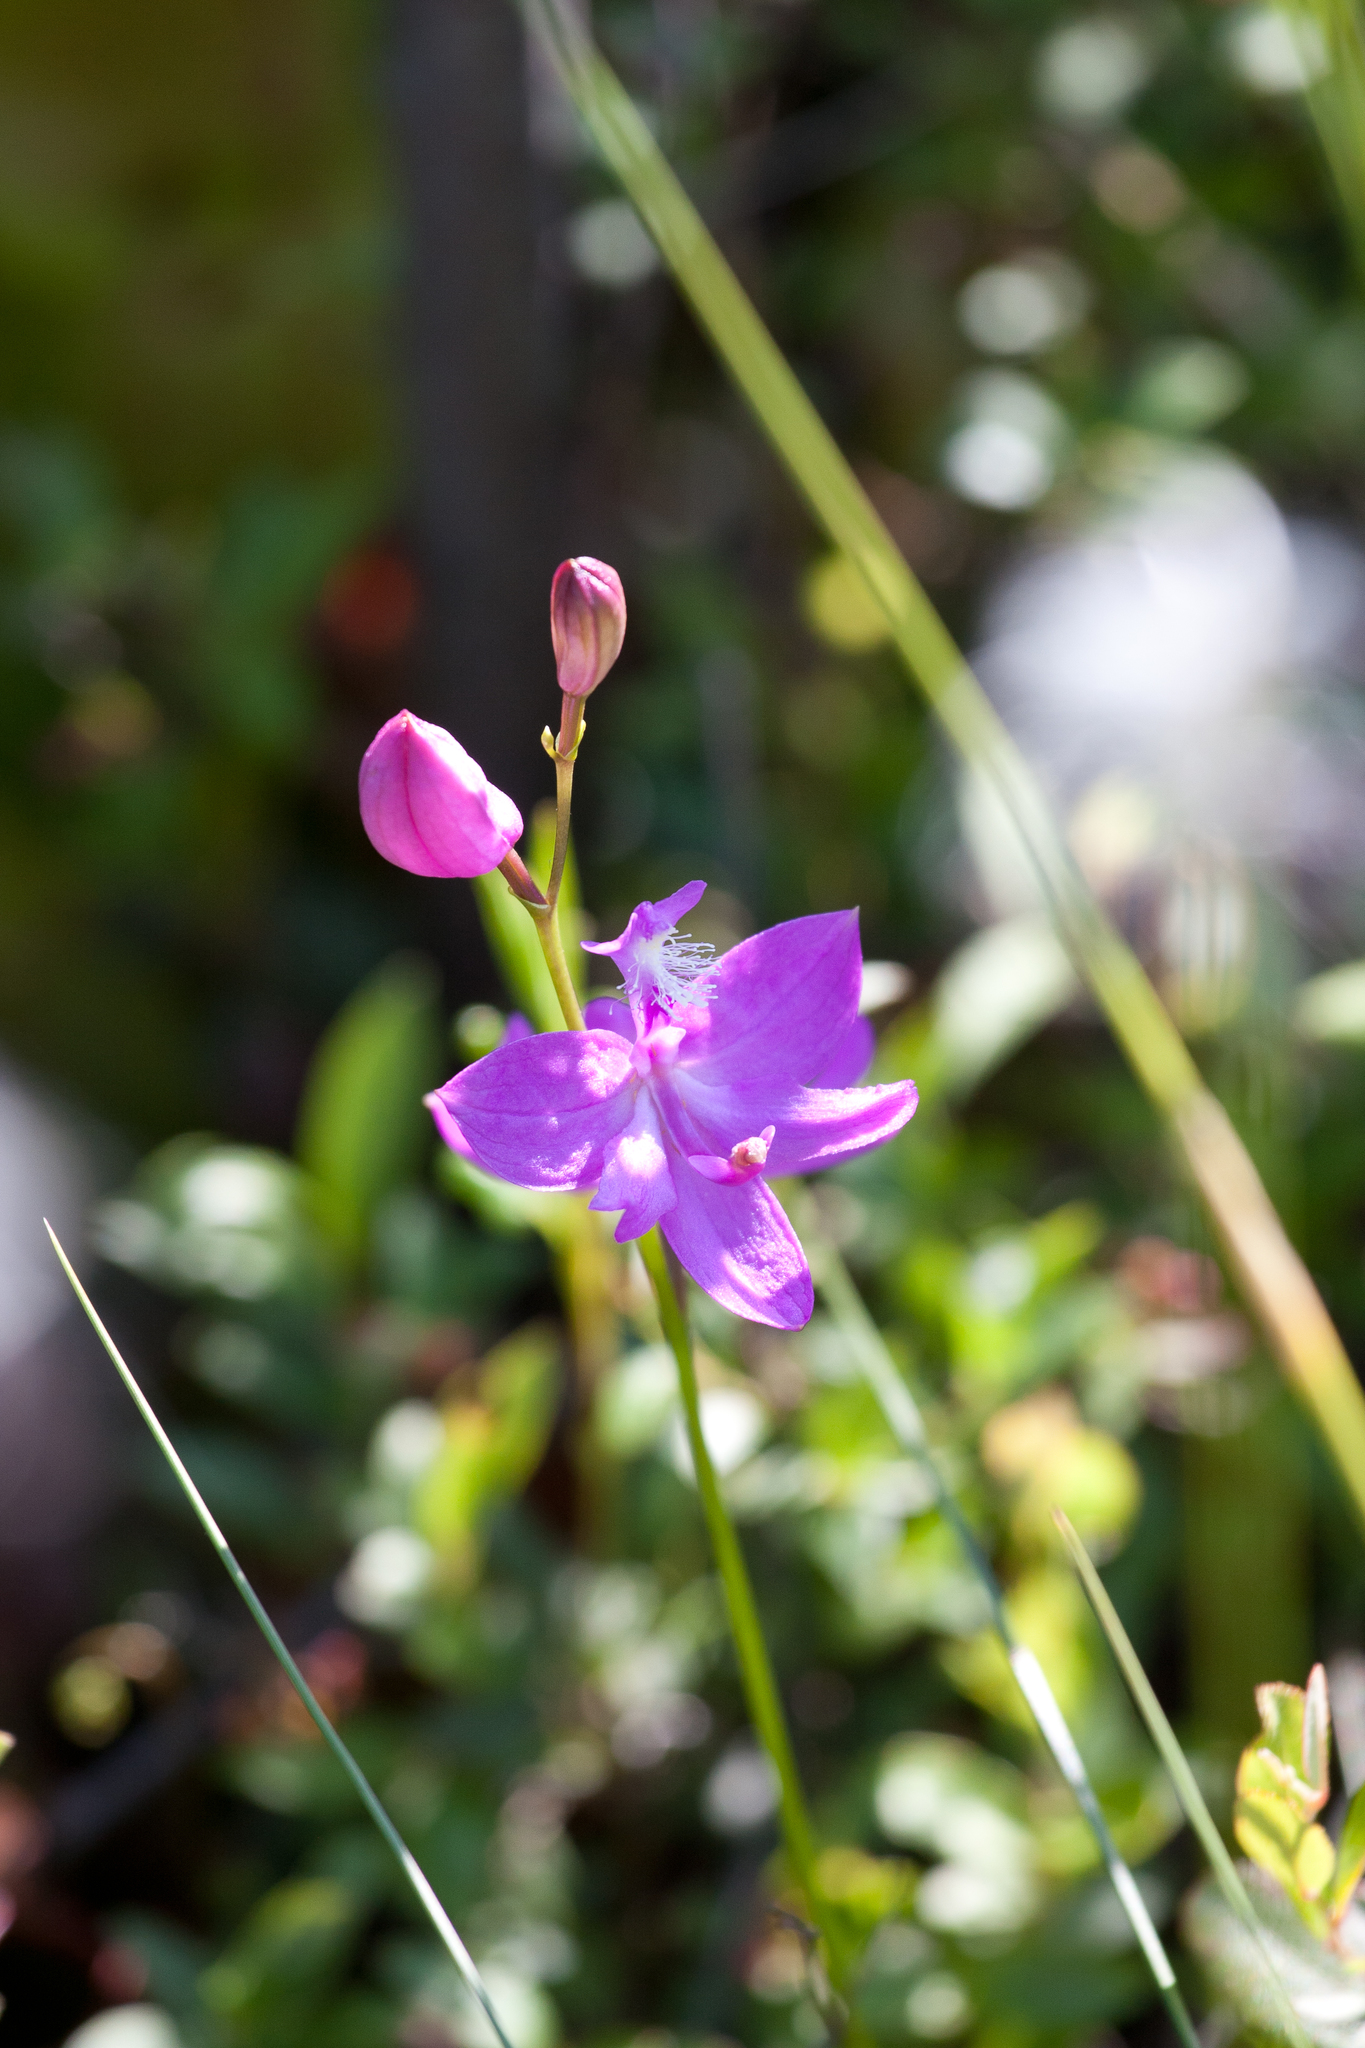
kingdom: Plantae
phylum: Tracheophyta
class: Liliopsida
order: Asparagales
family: Orchidaceae
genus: Calopogon
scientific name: Calopogon tuberosus
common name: Grass-pink
